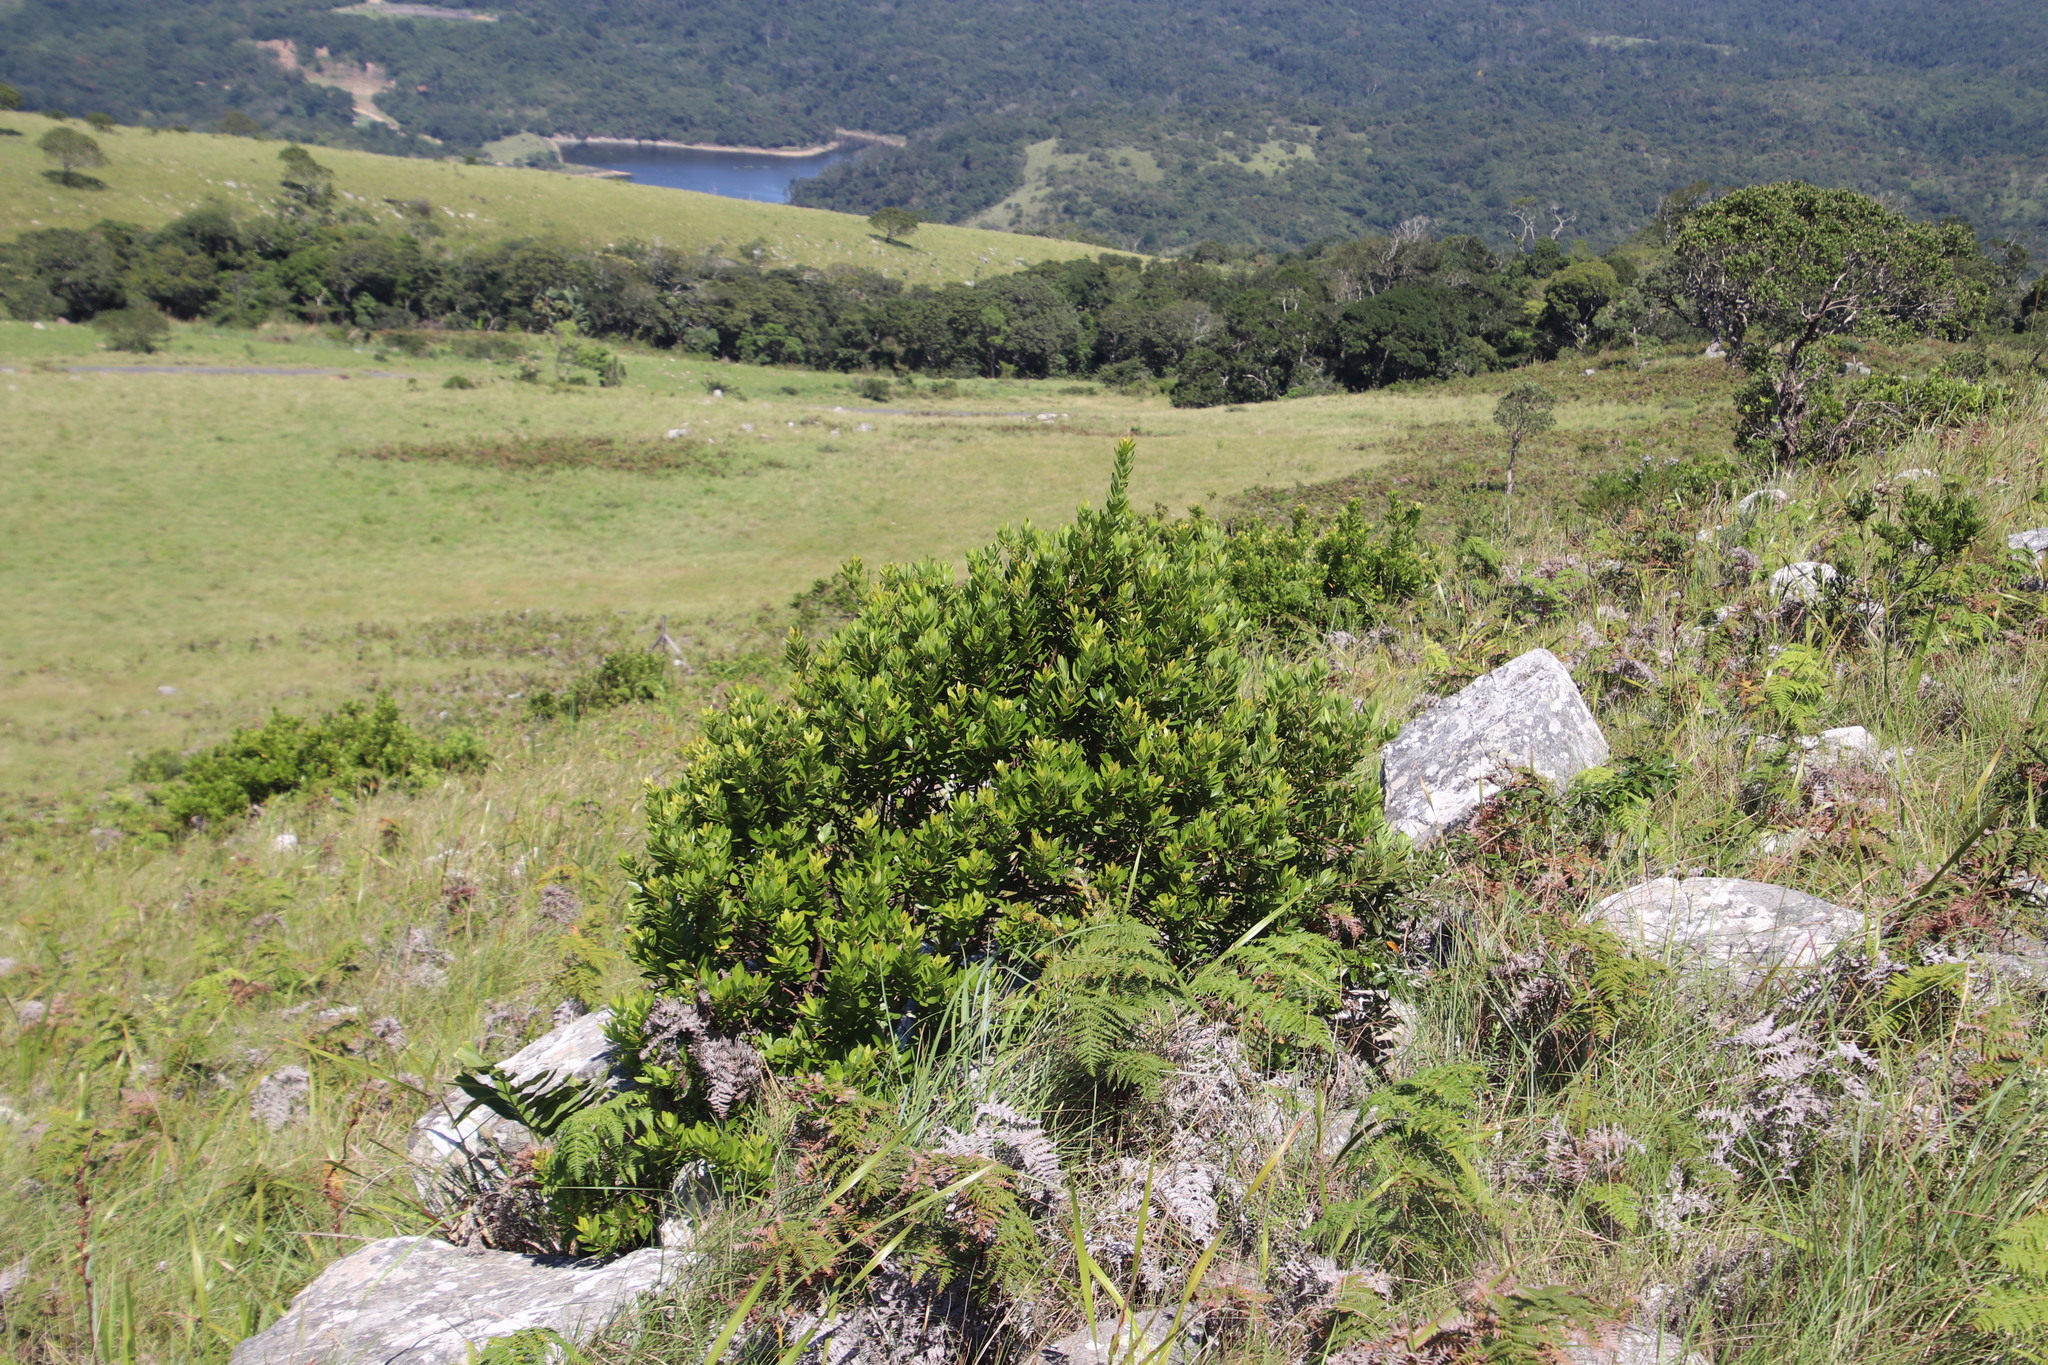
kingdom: Plantae
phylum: Tracheophyta
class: Magnoliopsida
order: Huerteales
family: Gerrardinaceae
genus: Gerrardina
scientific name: Gerrardina foliosa
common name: Krantz-berry
